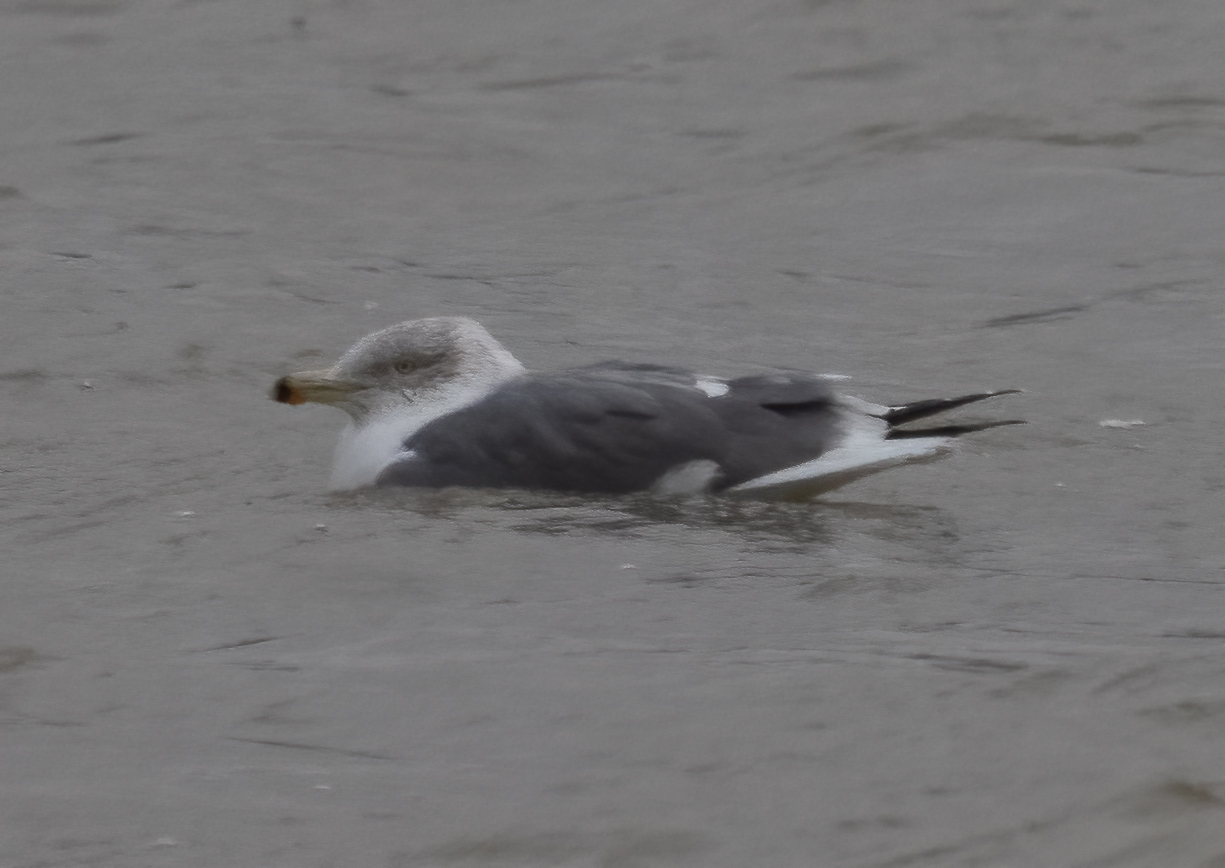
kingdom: Animalia
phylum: Chordata
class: Aves
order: Charadriiformes
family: Laridae
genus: Larus
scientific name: Larus fuscus
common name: Lesser black-backed gull
